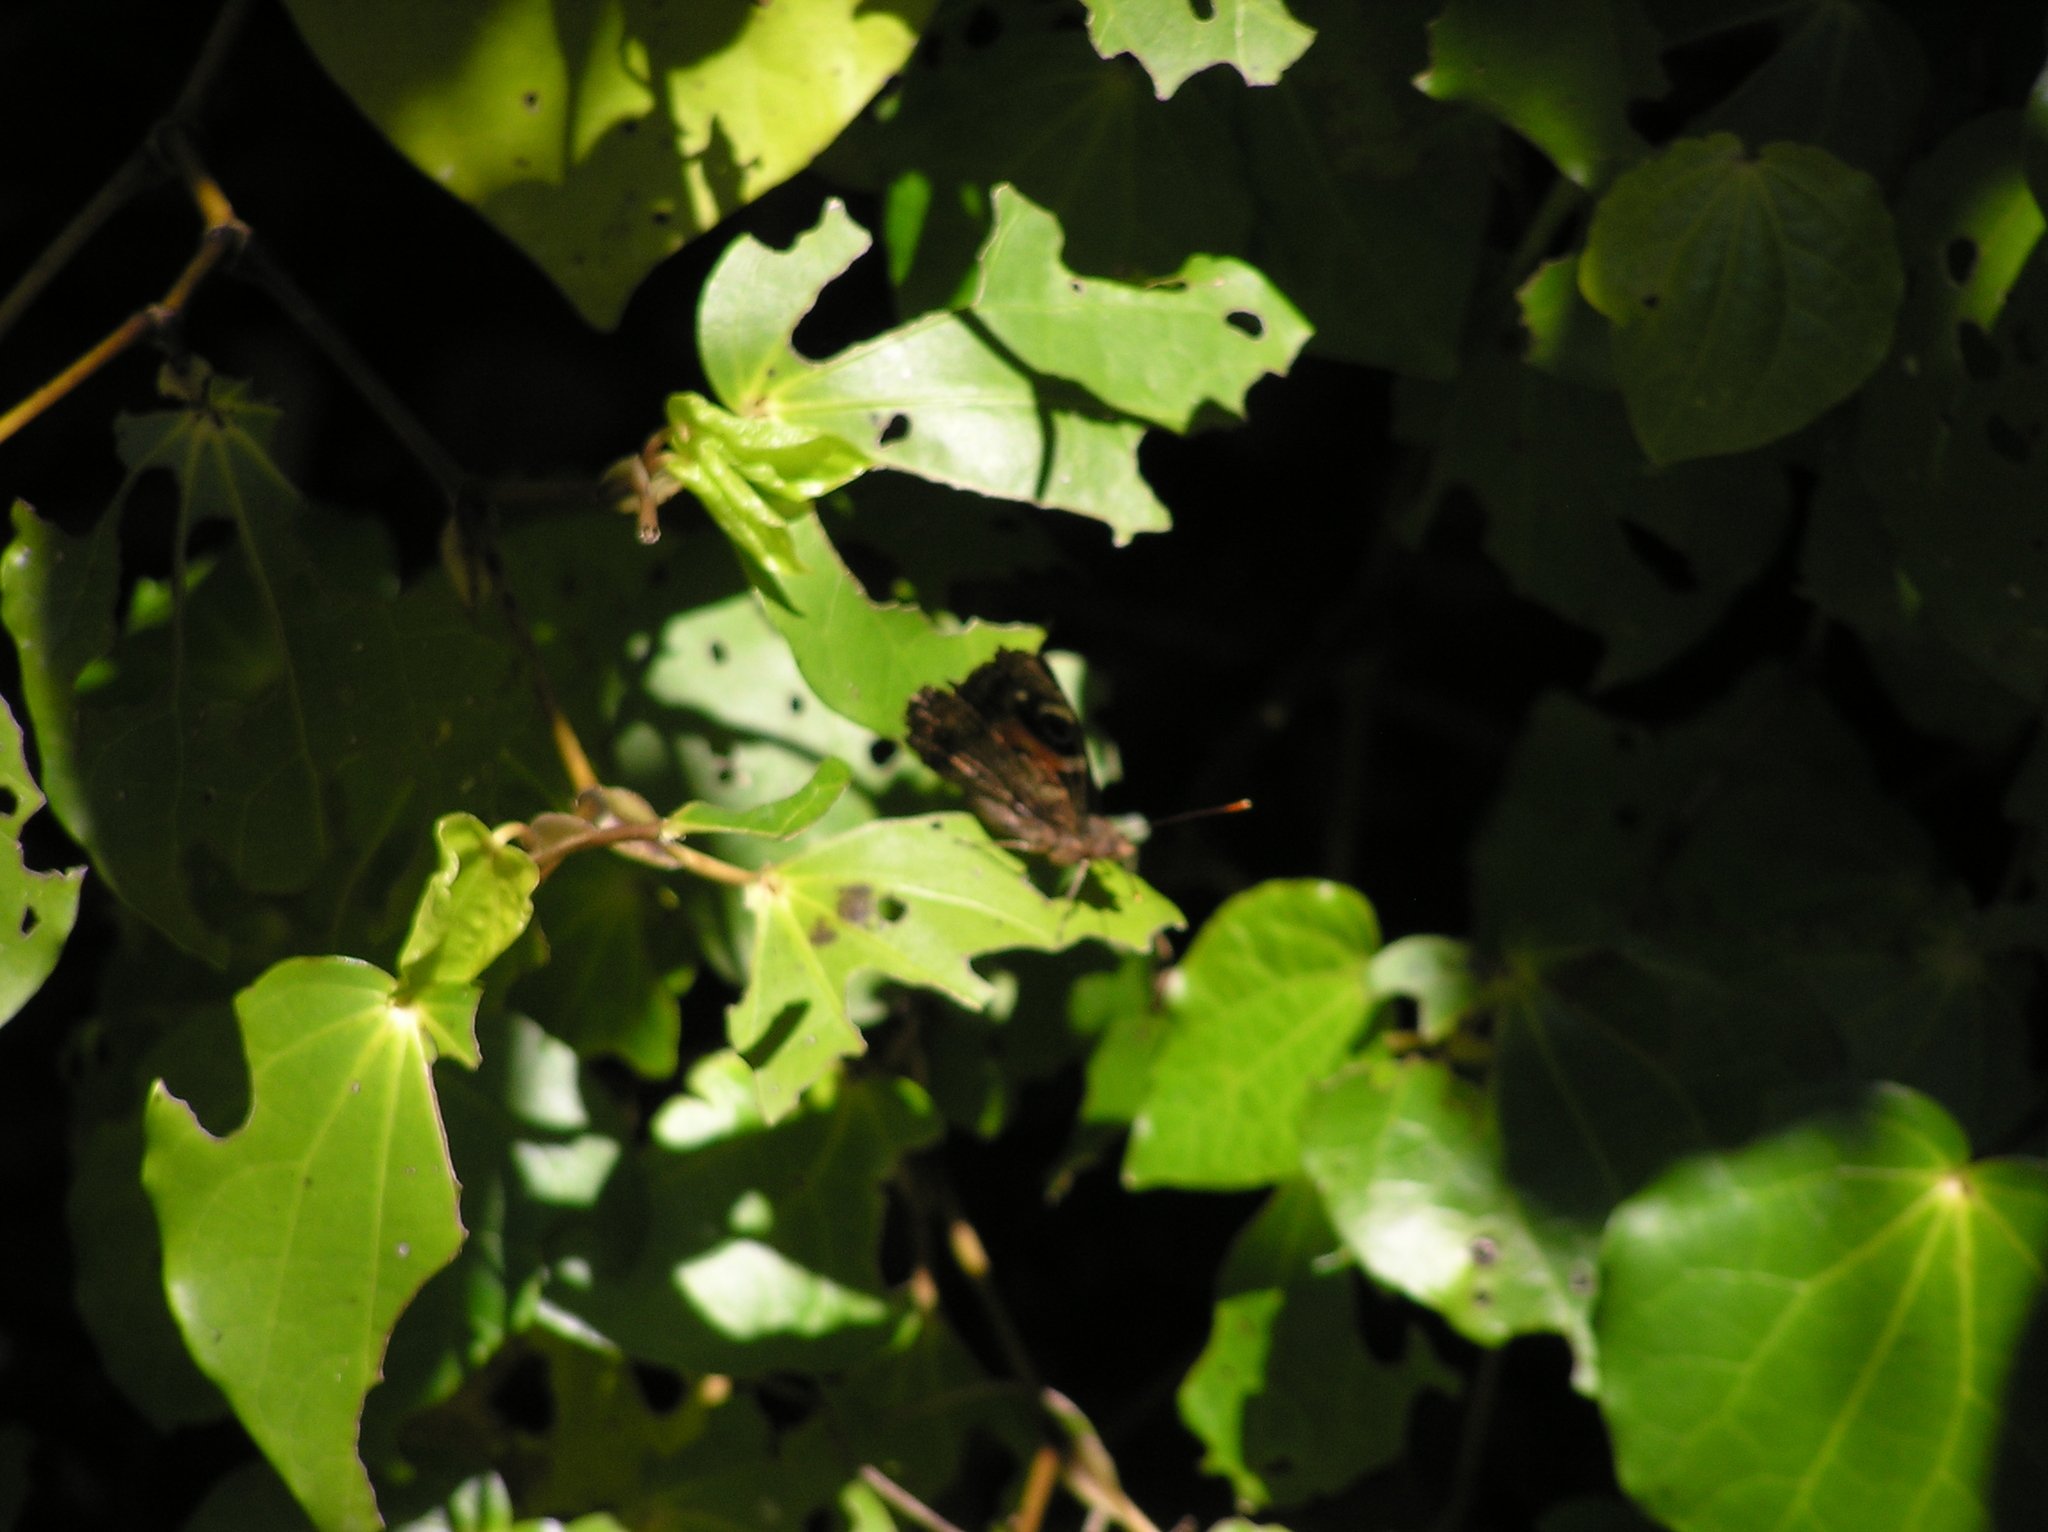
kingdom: Animalia
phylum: Arthropoda
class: Insecta
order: Lepidoptera
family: Nymphalidae
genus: Vanessa
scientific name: Vanessa gonerilla
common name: New zealand red admiral
